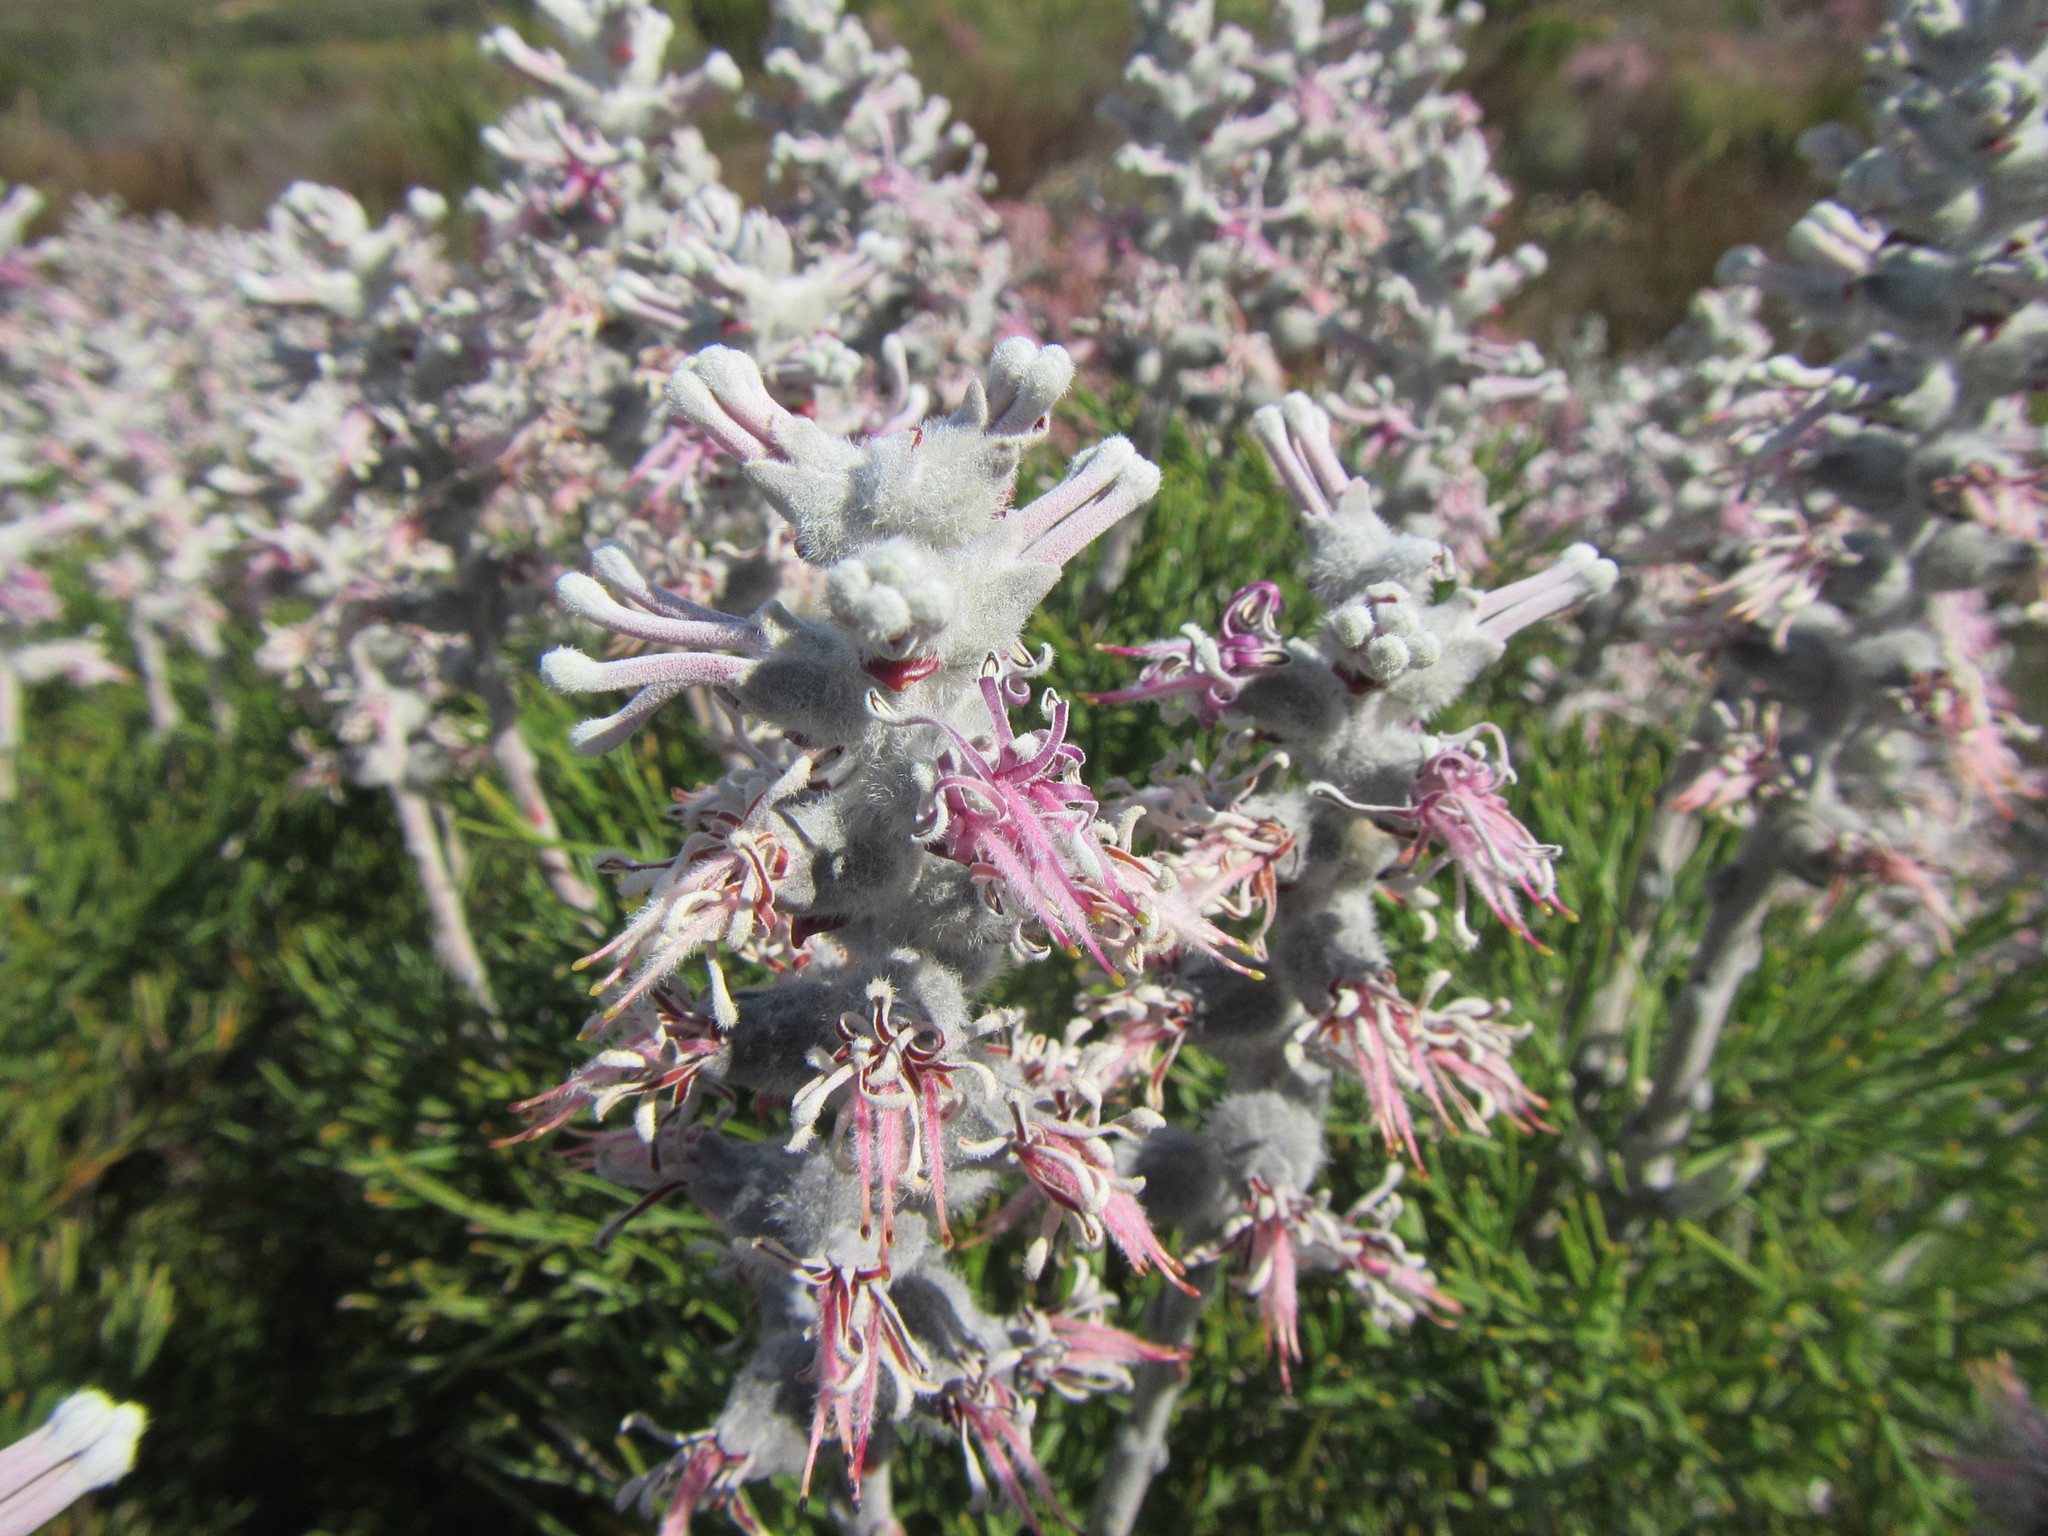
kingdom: Plantae
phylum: Tracheophyta
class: Magnoliopsida
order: Proteales
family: Proteaceae
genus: Paranomus
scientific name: Paranomus spicatus
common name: Kogelberg sceptre
